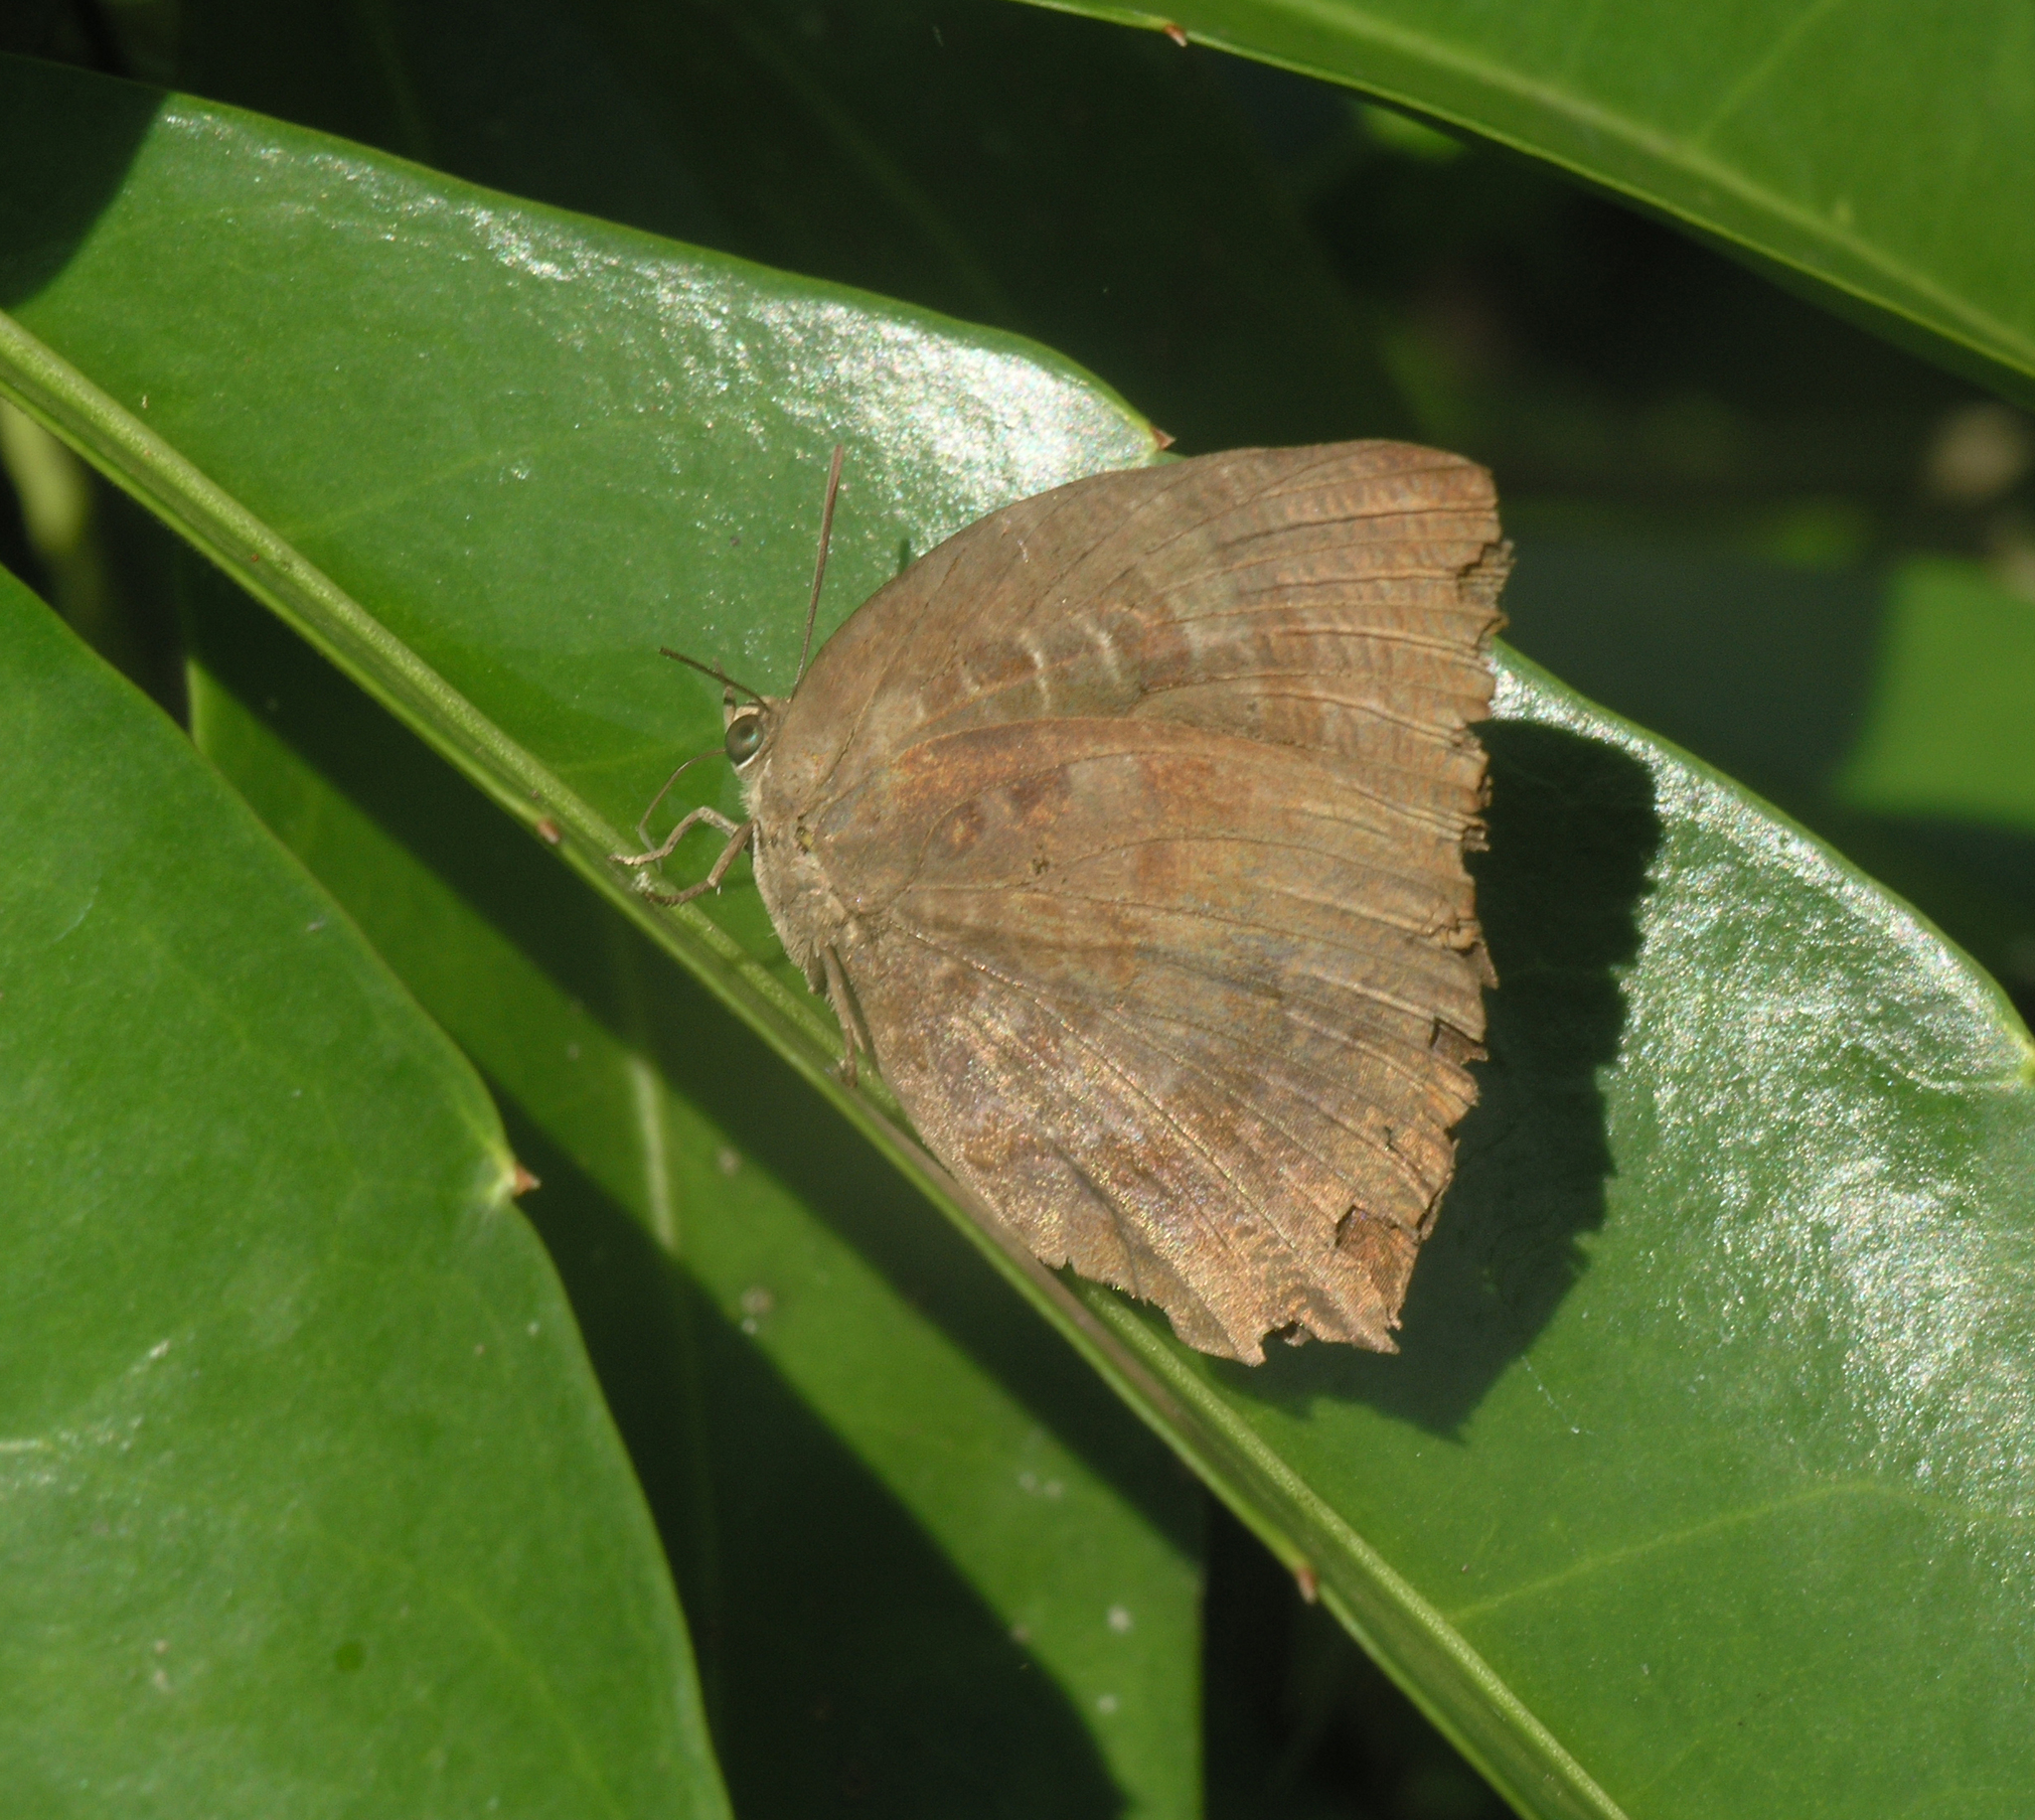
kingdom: Animalia
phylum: Arthropoda
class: Insecta
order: Lepidoptera
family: Lycaenidae
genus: Arhopala
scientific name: Arhopala centaurus
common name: Dull oak-blue
